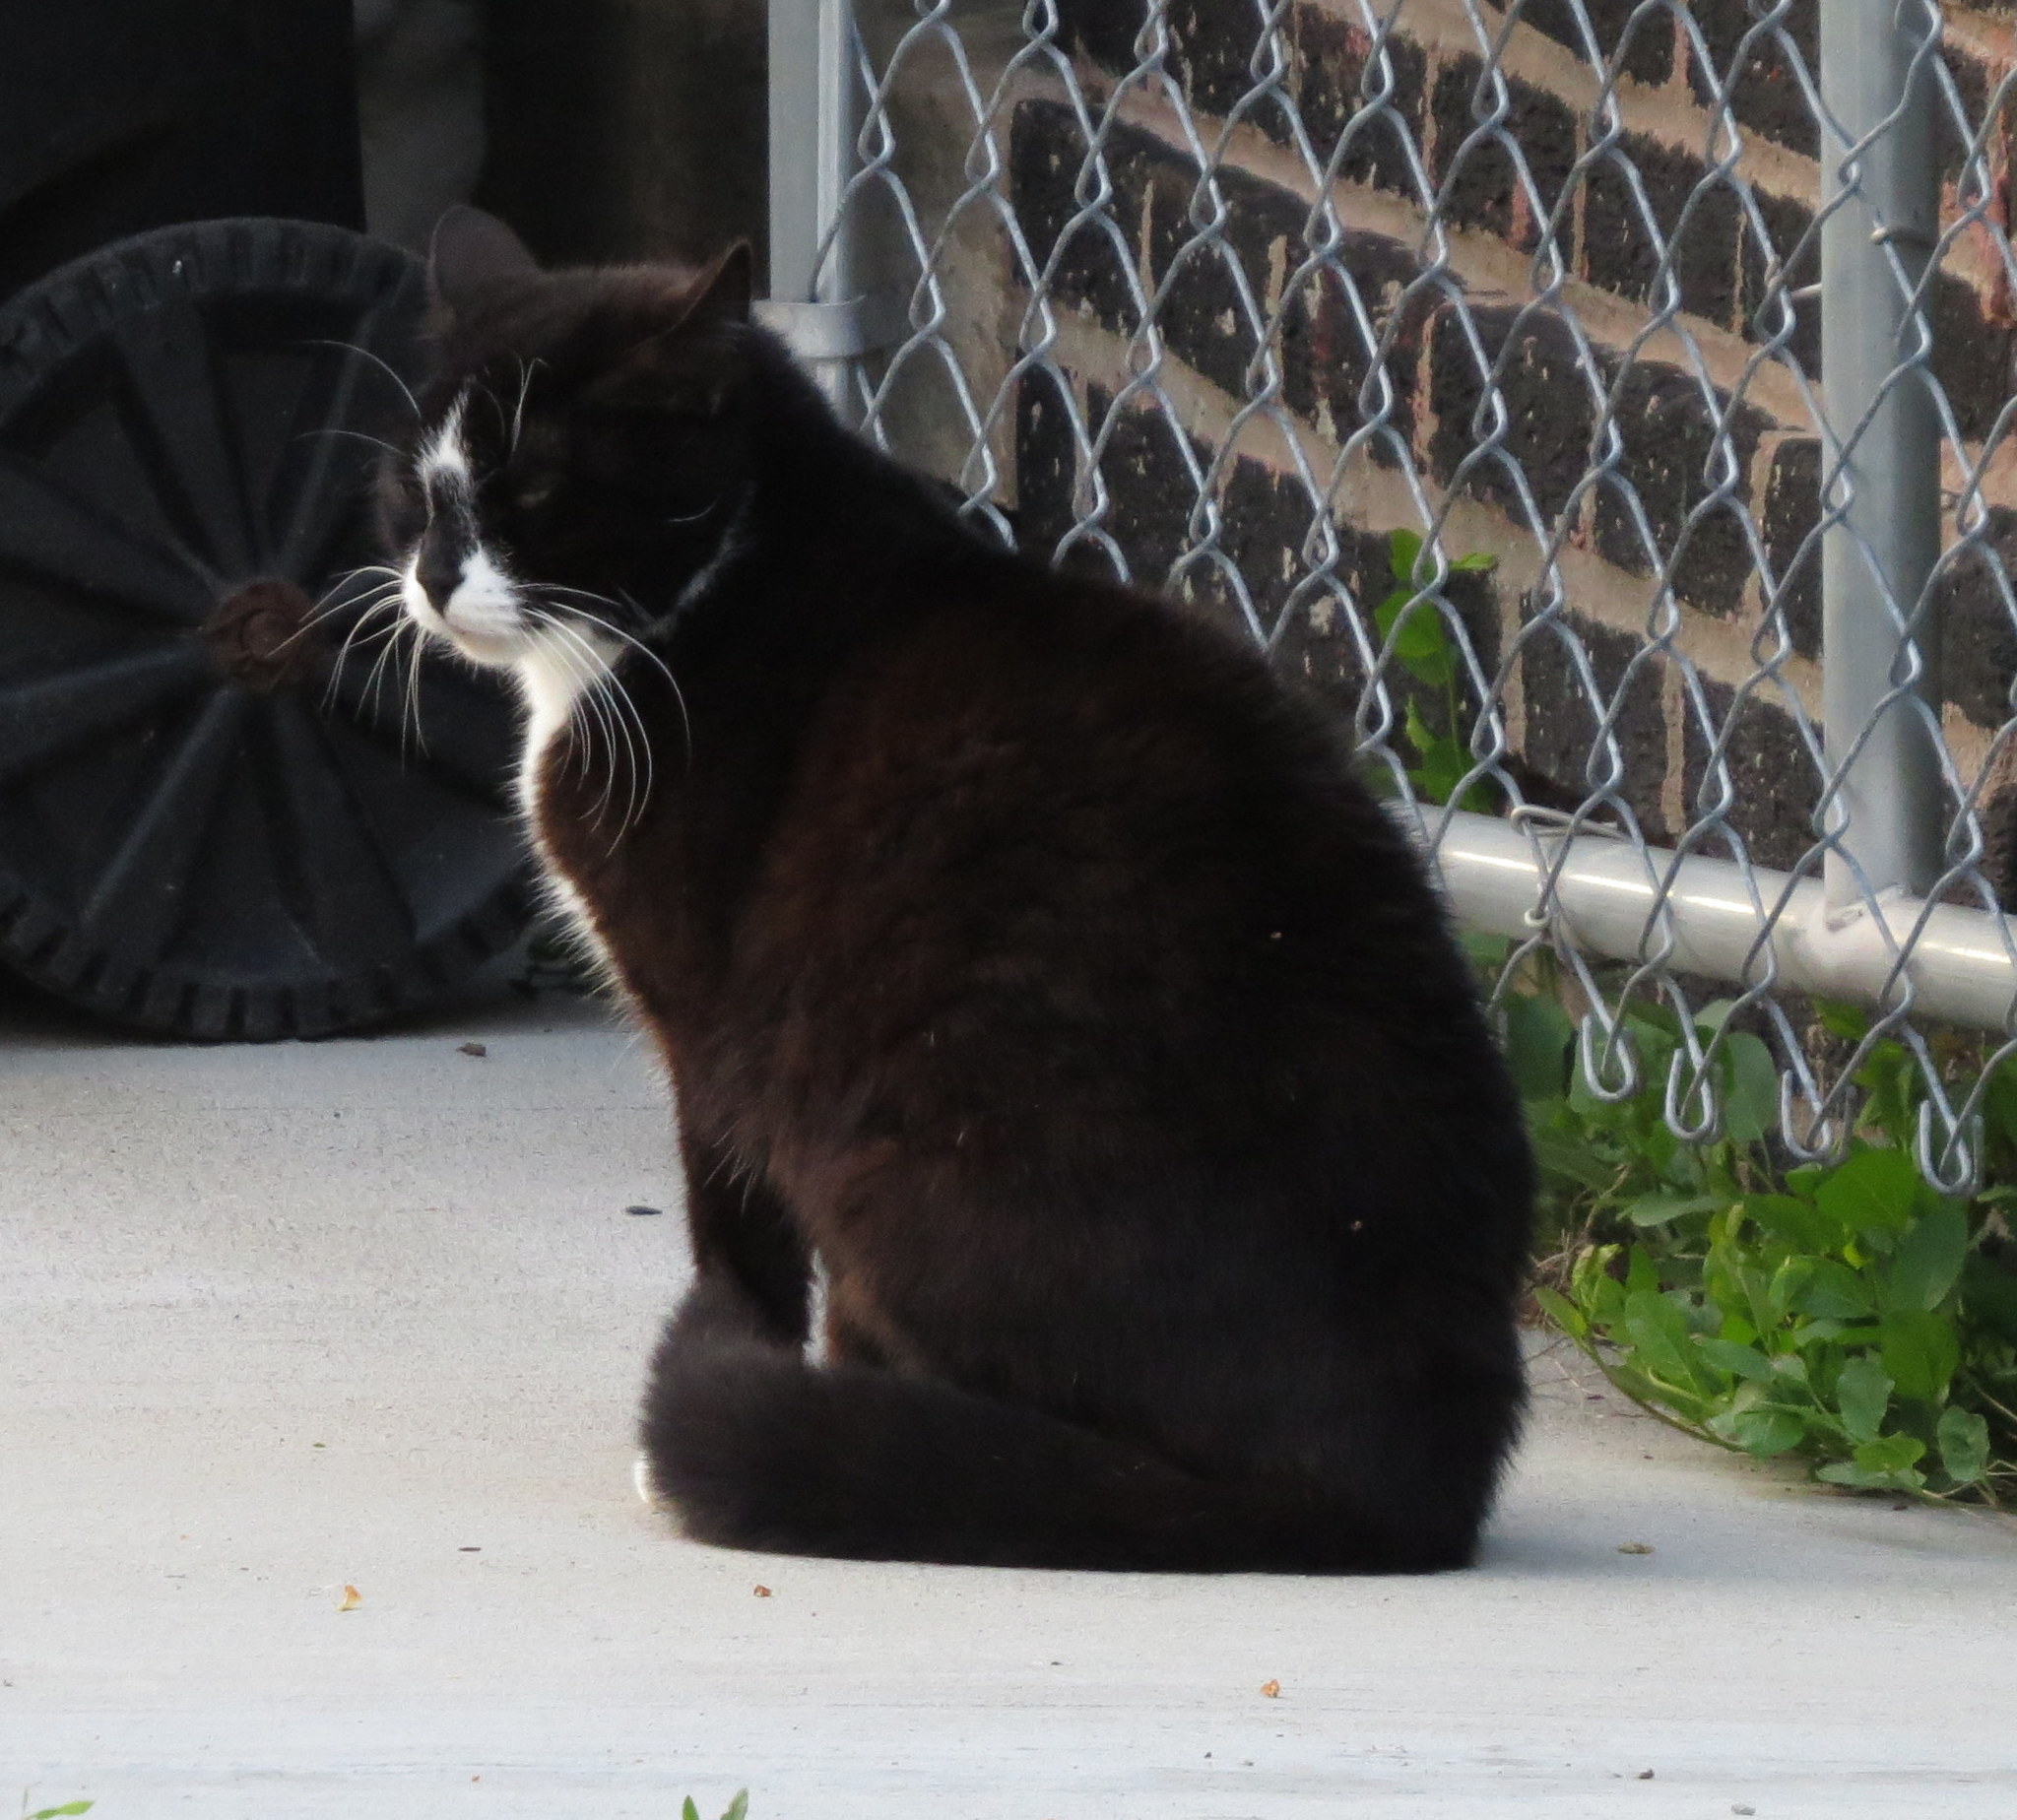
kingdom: Animalia
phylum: Chordata
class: Mammalia
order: Carnivora
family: Felidae
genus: Felis
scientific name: Felis catus
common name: Domestic cat
